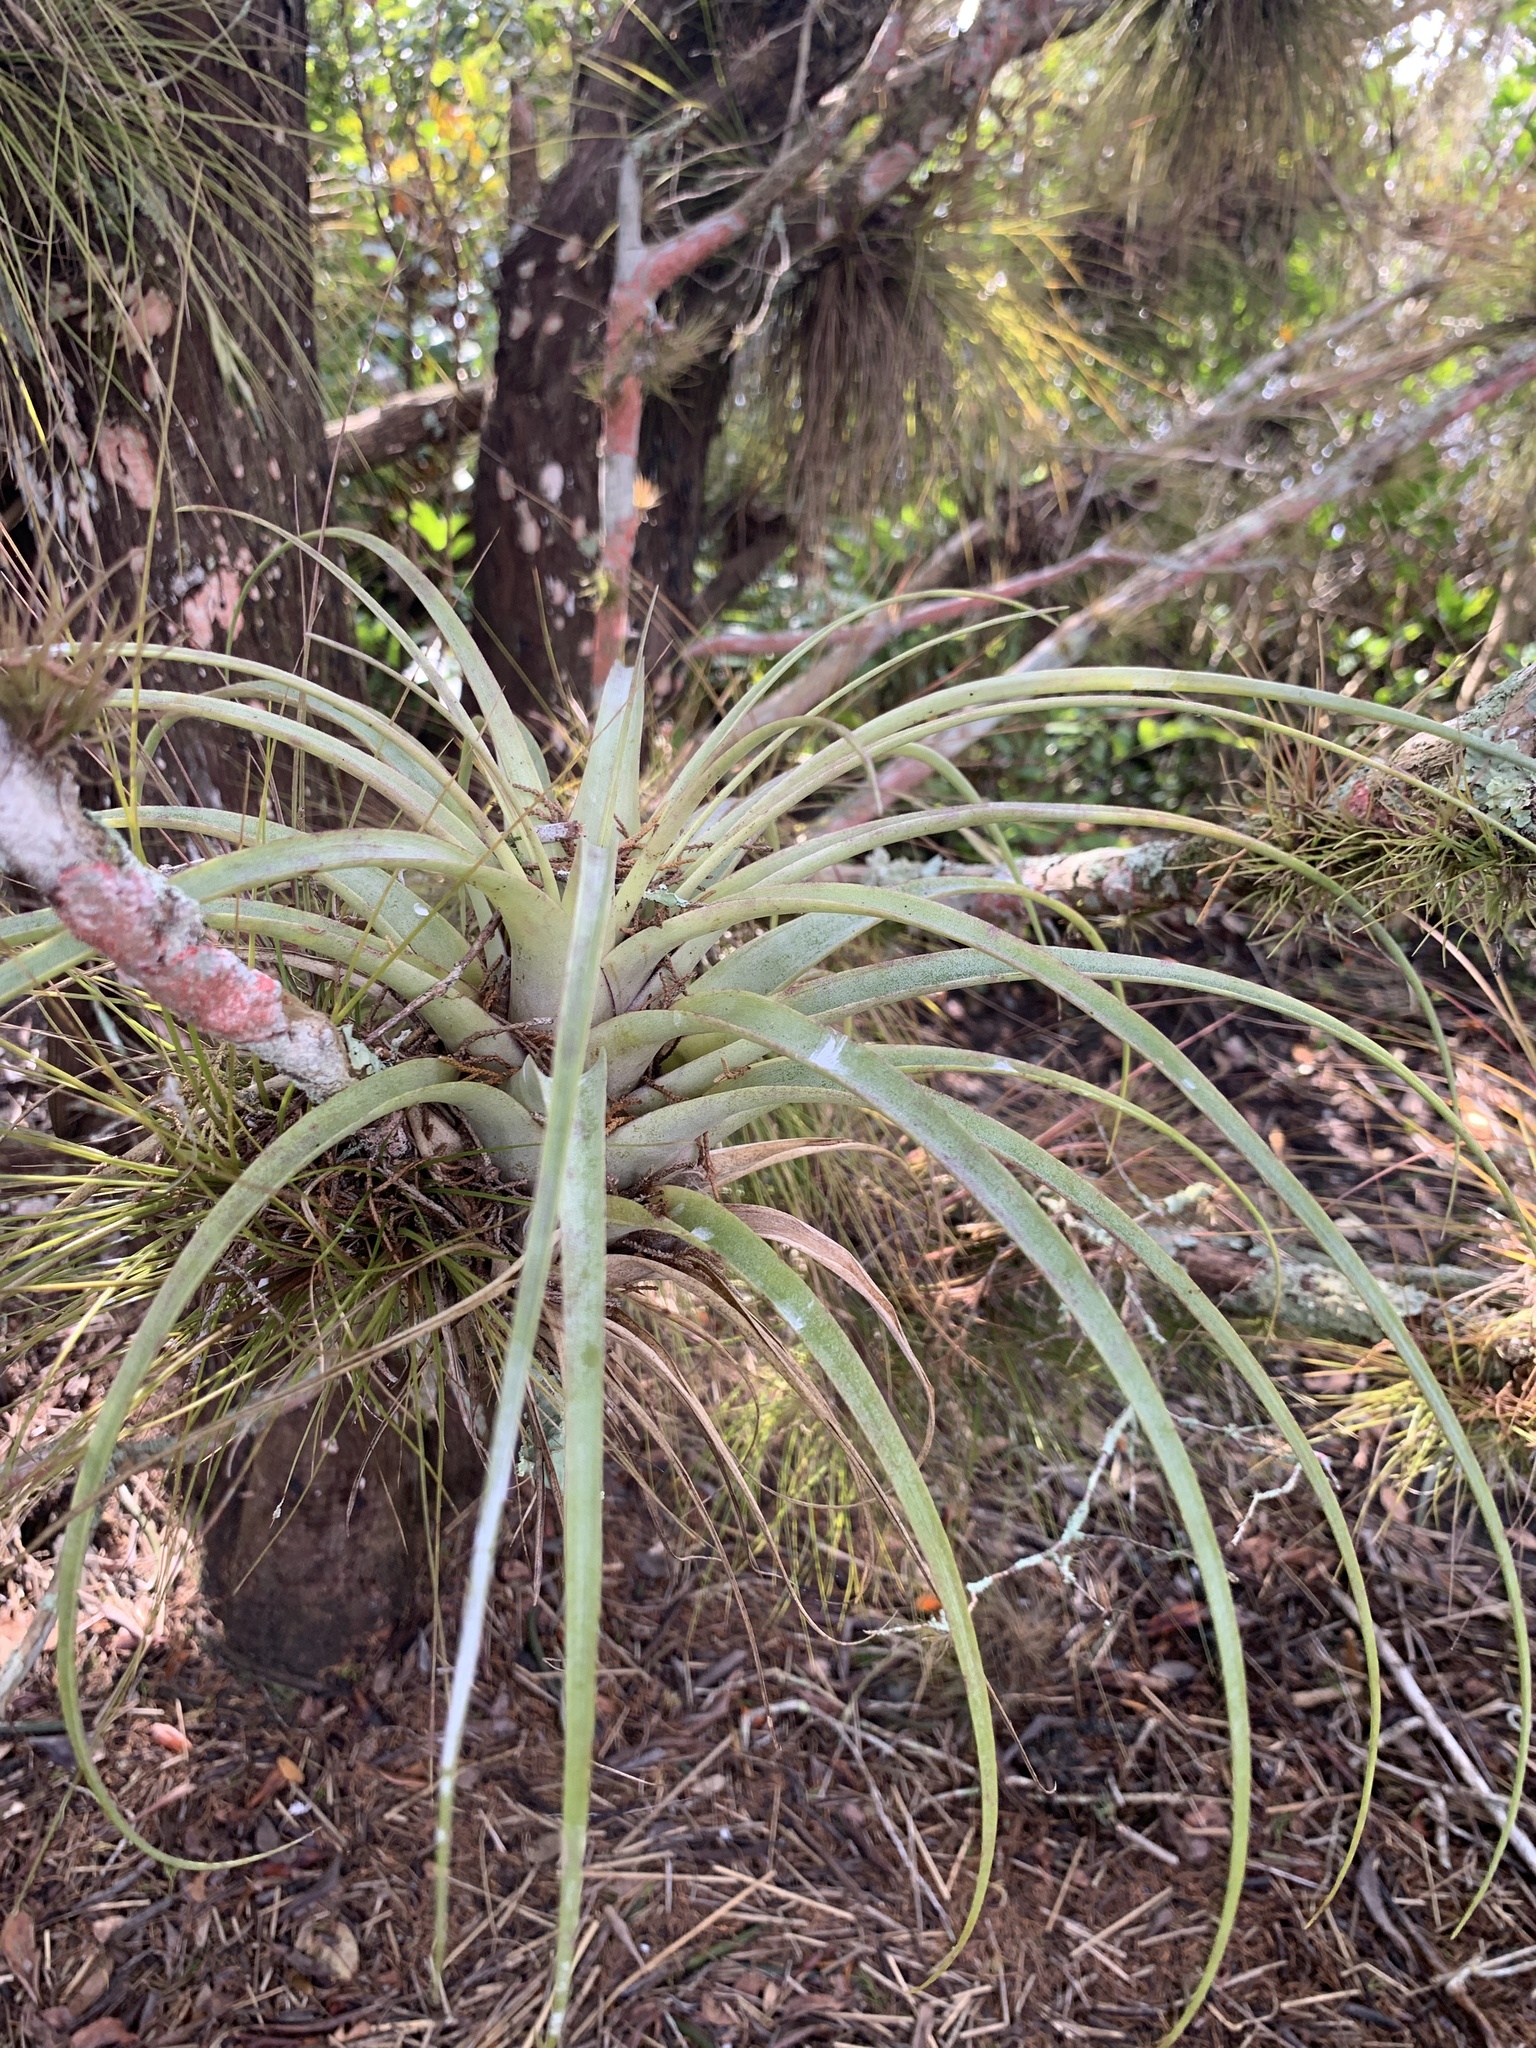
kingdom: Plantae
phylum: Tracheophyta
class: Liliopsida
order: Poales
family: Bromeliaceae
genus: Tillandsia
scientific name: Tillandsia utriculata
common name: Wild pine
